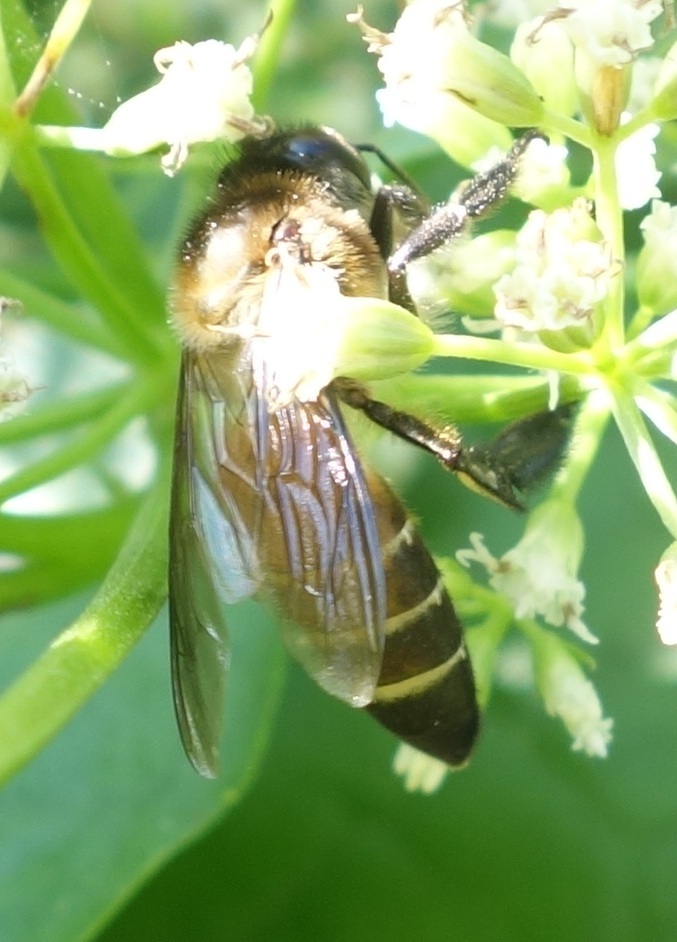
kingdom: Animalia
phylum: Arthropoda
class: Insecta
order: Hymenoptera
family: Apidae
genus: Apis
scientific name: Apis dorsata
